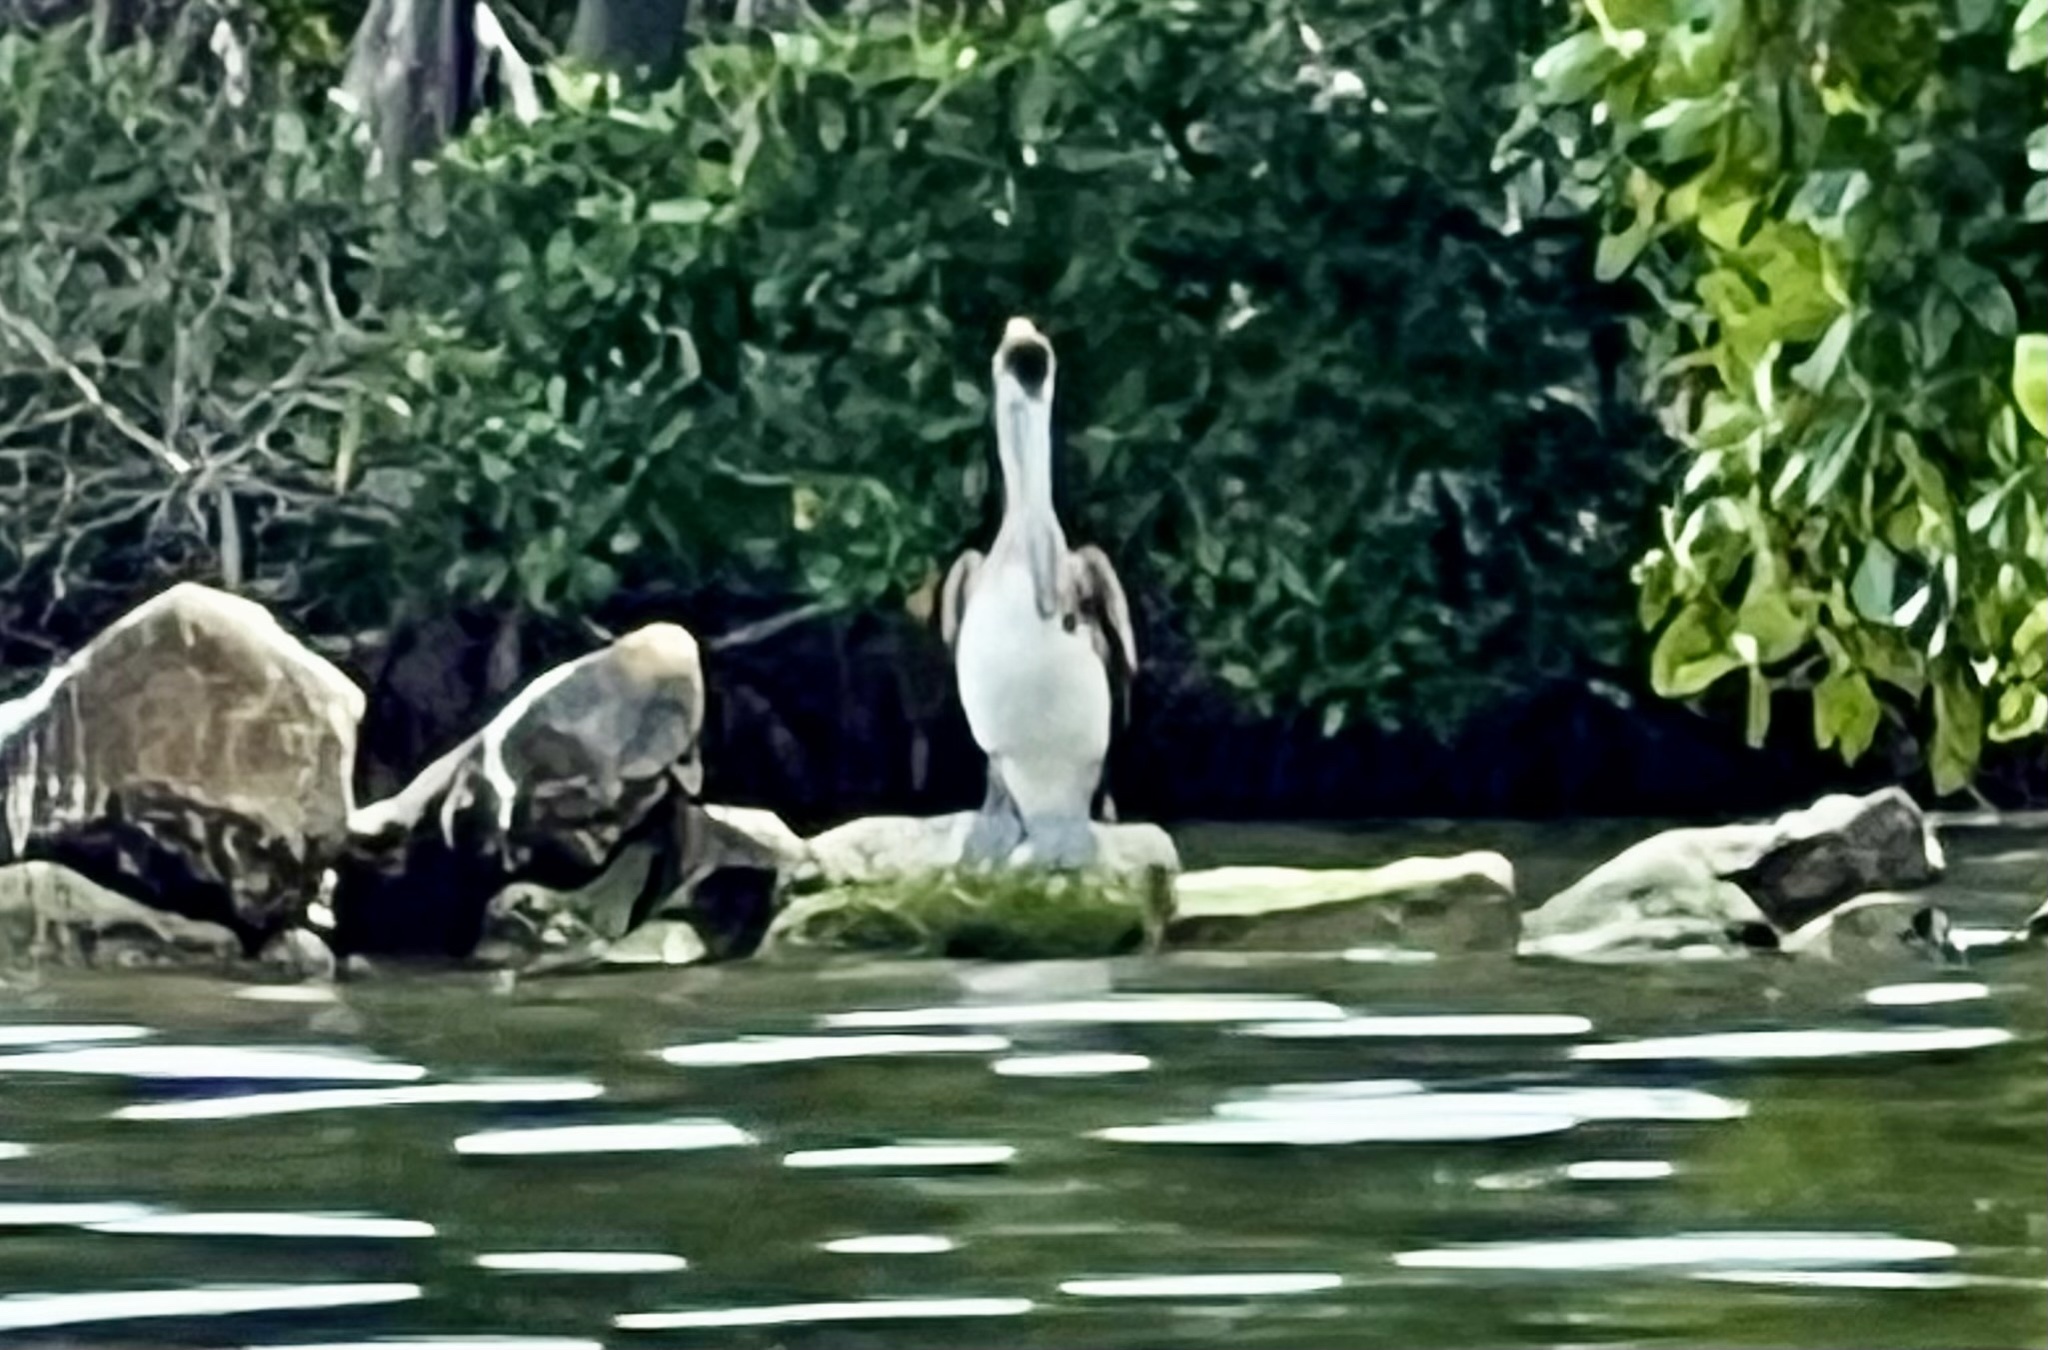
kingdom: Animalia
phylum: Chordata
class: Aves
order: Pelecaniformes
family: Pelecanidae
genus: Pelecanus
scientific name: Pelecanus occidentalis
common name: Brown pelican
